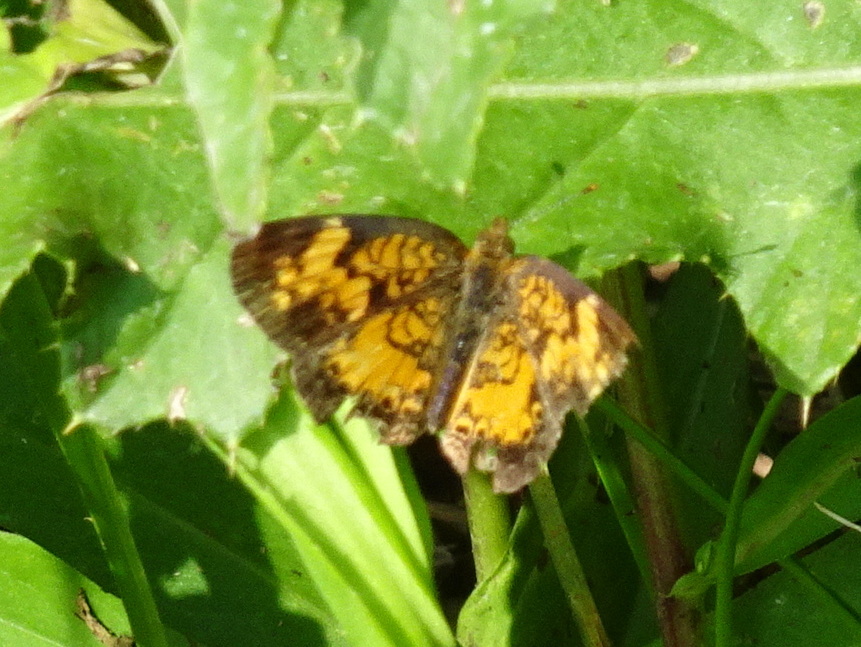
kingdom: Animalia
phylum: Arthropoda
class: Insecta
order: Lepidoptera
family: Nymphalidae
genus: Phyciodes
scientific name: Phyciodes tharos
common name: Pearl crescent
